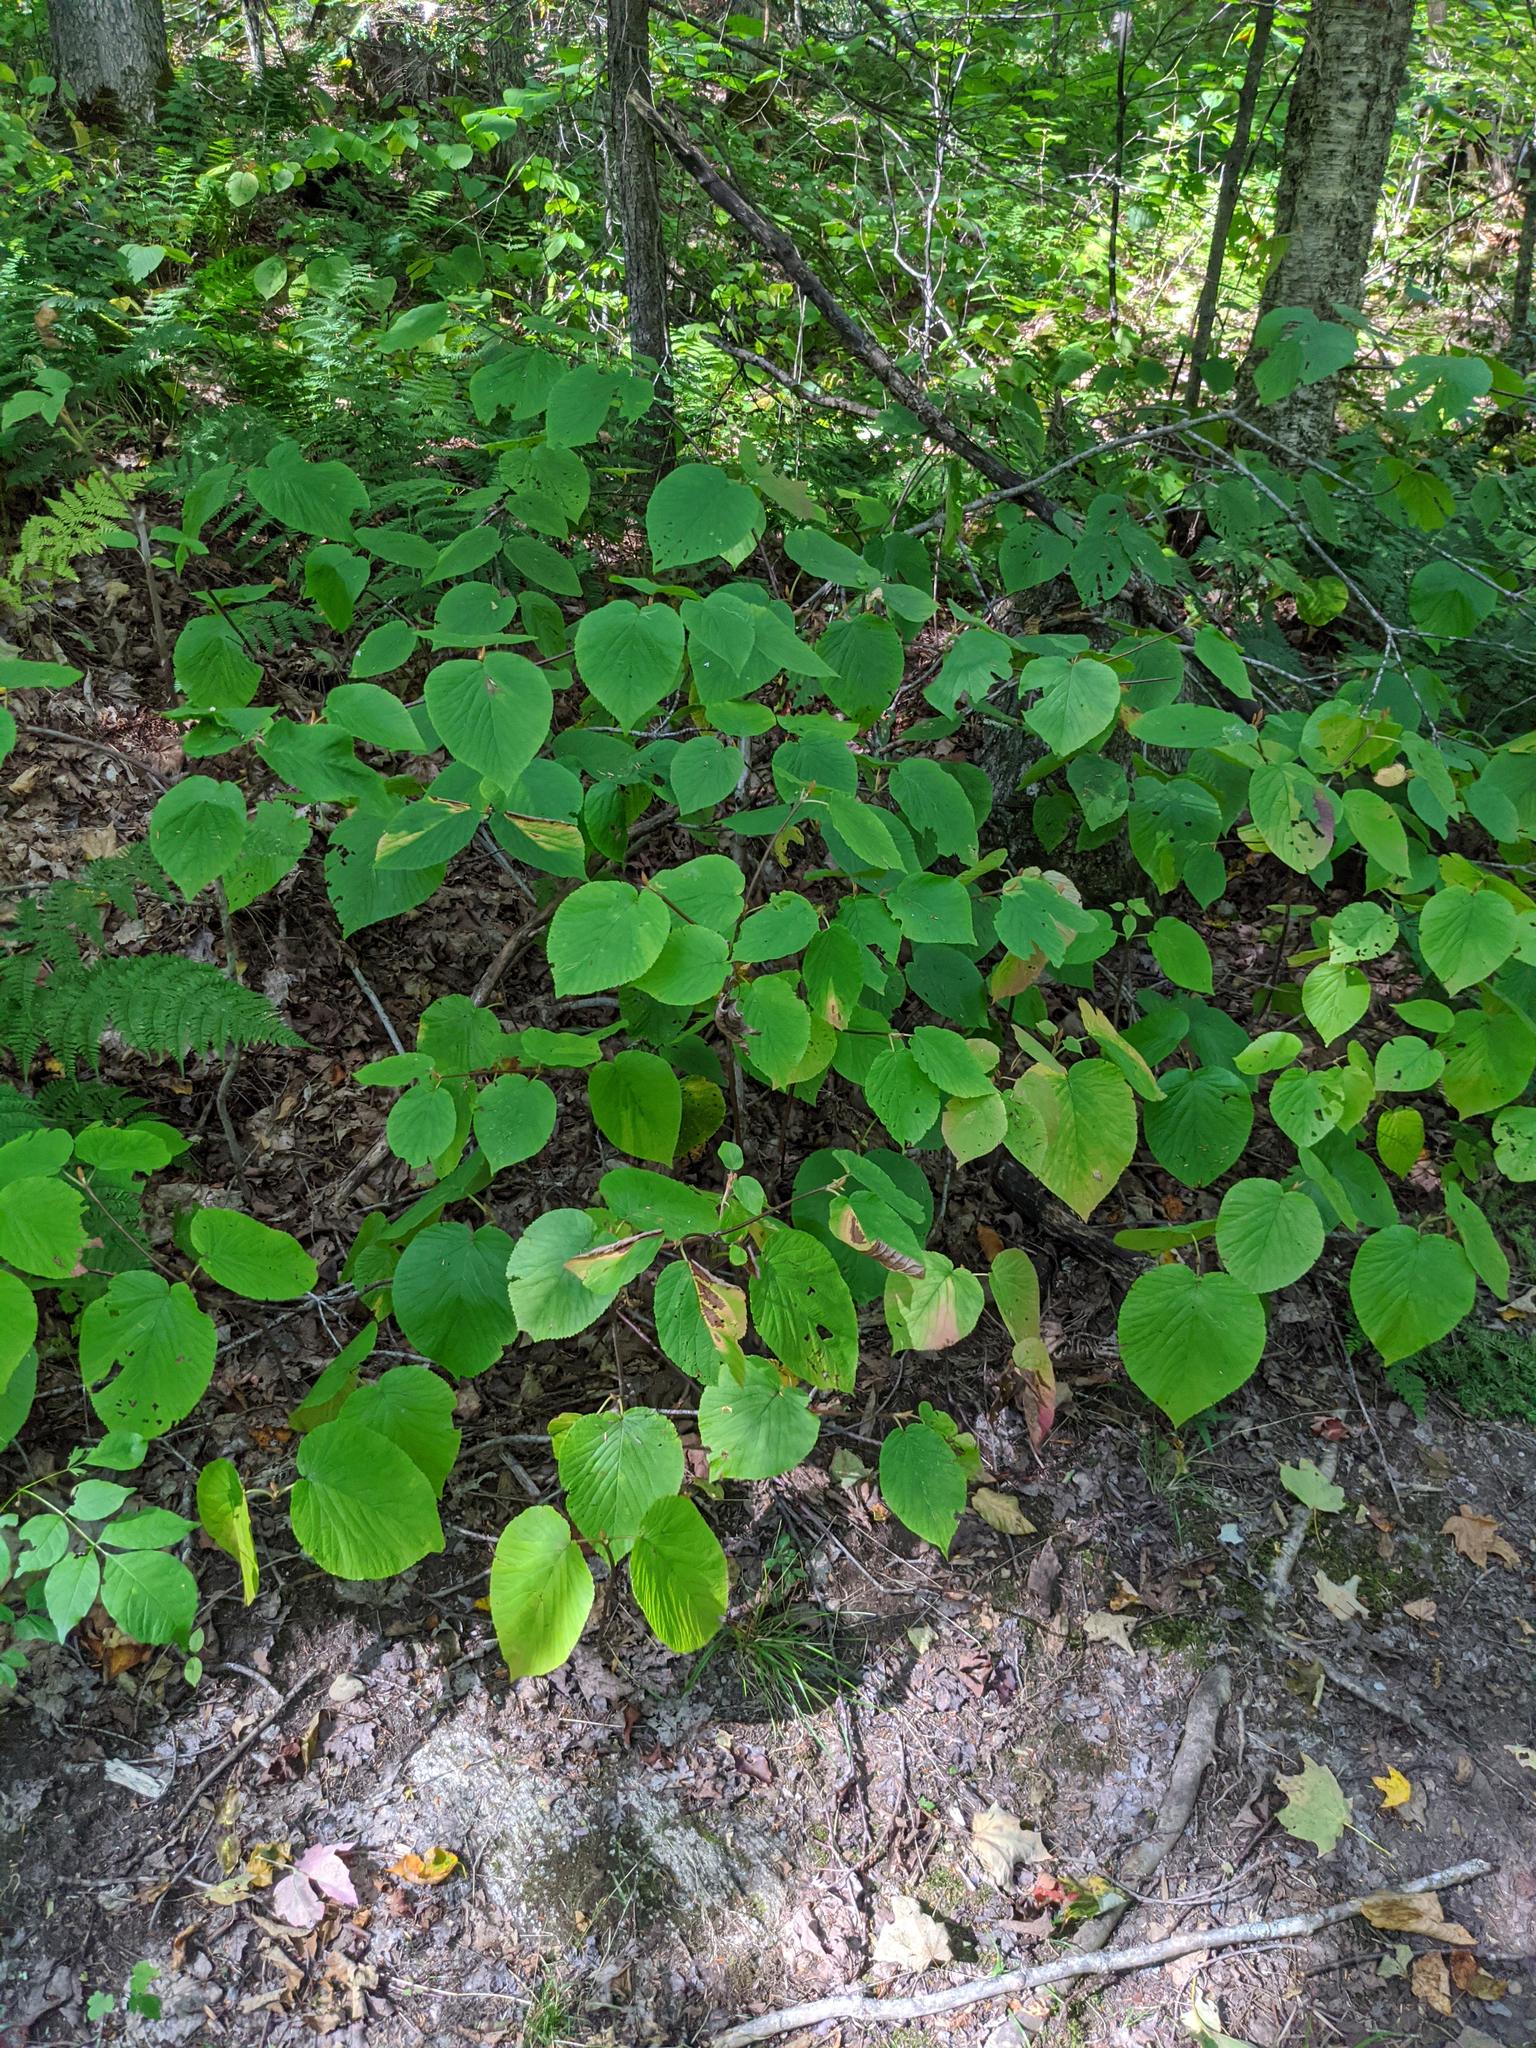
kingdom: Plantae
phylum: Tracheophyta
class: Magnoliopsida
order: Dipsacales
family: Viburnaceae
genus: Viburnum
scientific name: Viburnum lantanoides
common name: Hobblebush
